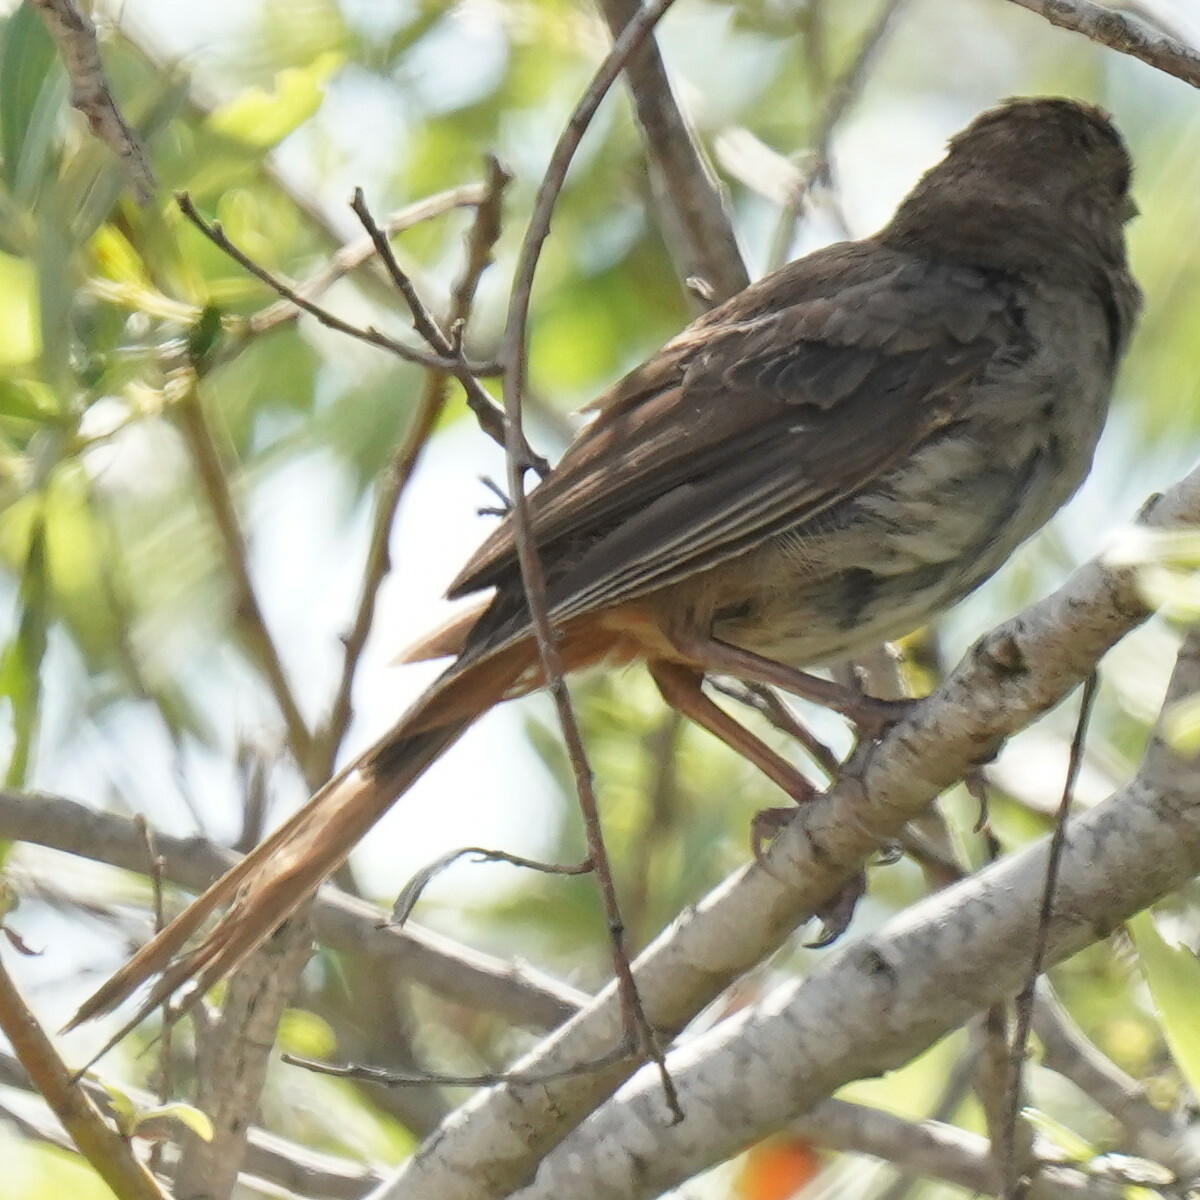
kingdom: Animalia
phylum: Chordata
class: Aves
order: Passeriformes
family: Passerellidae
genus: Melozone
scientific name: Melozone crissalis
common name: California towhee
